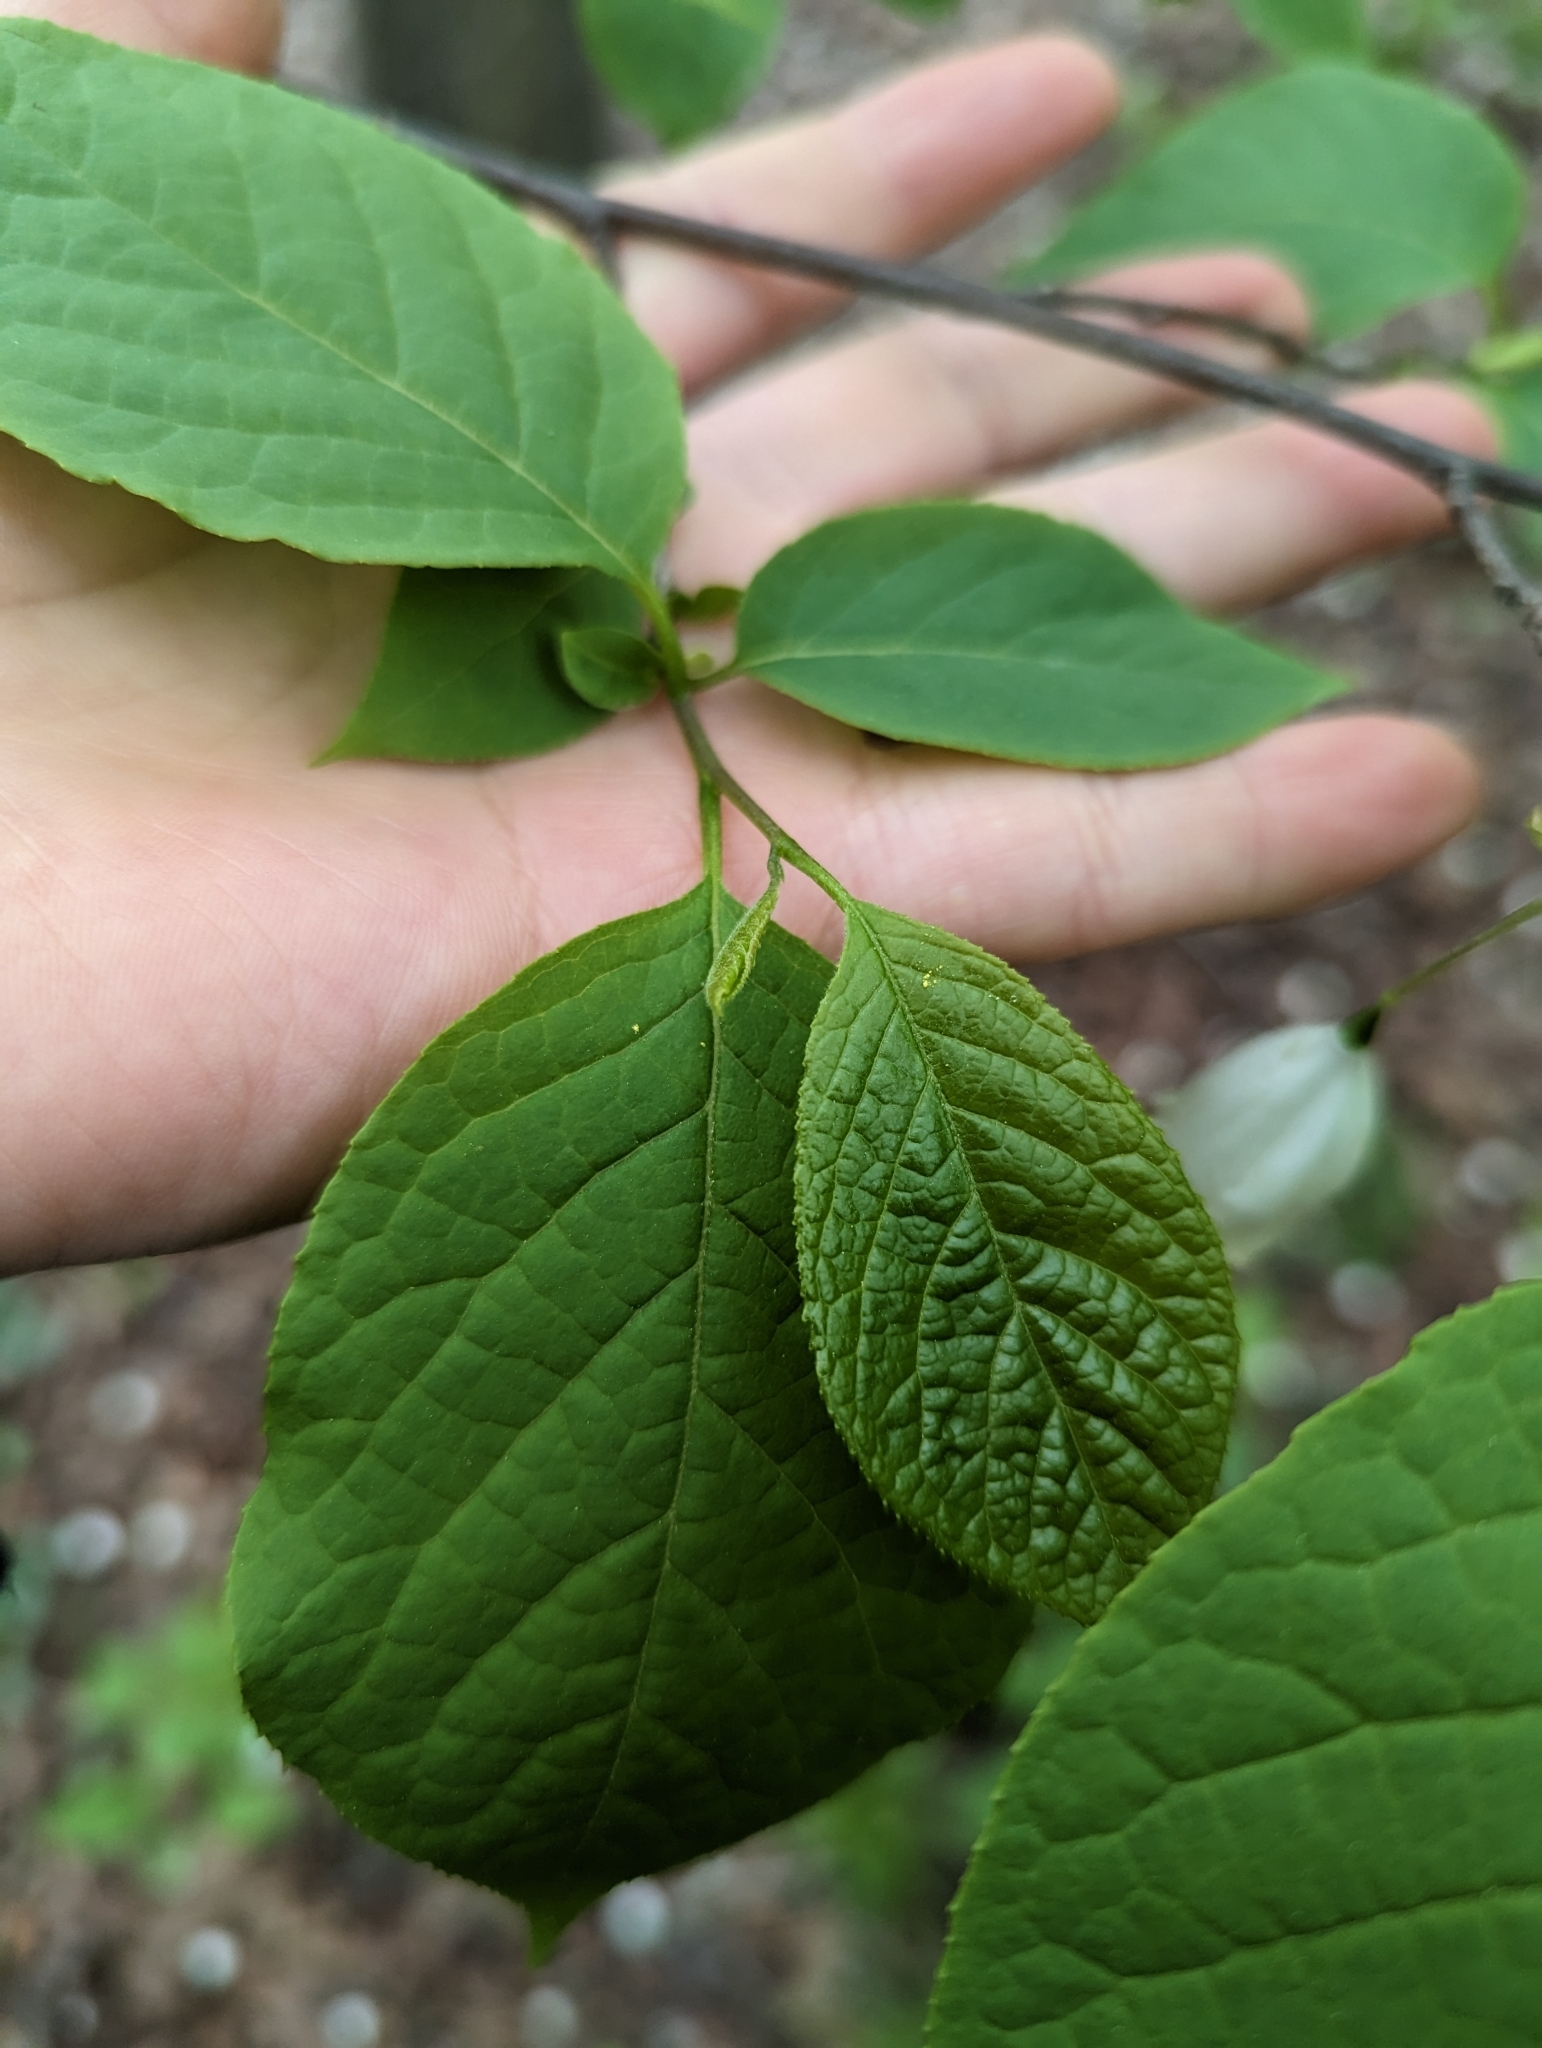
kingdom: Plantae
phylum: Tracheophyta
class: Magnoliopsida
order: Ericales
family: Styracaceae
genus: Halesia
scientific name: Halesia tetraptera
